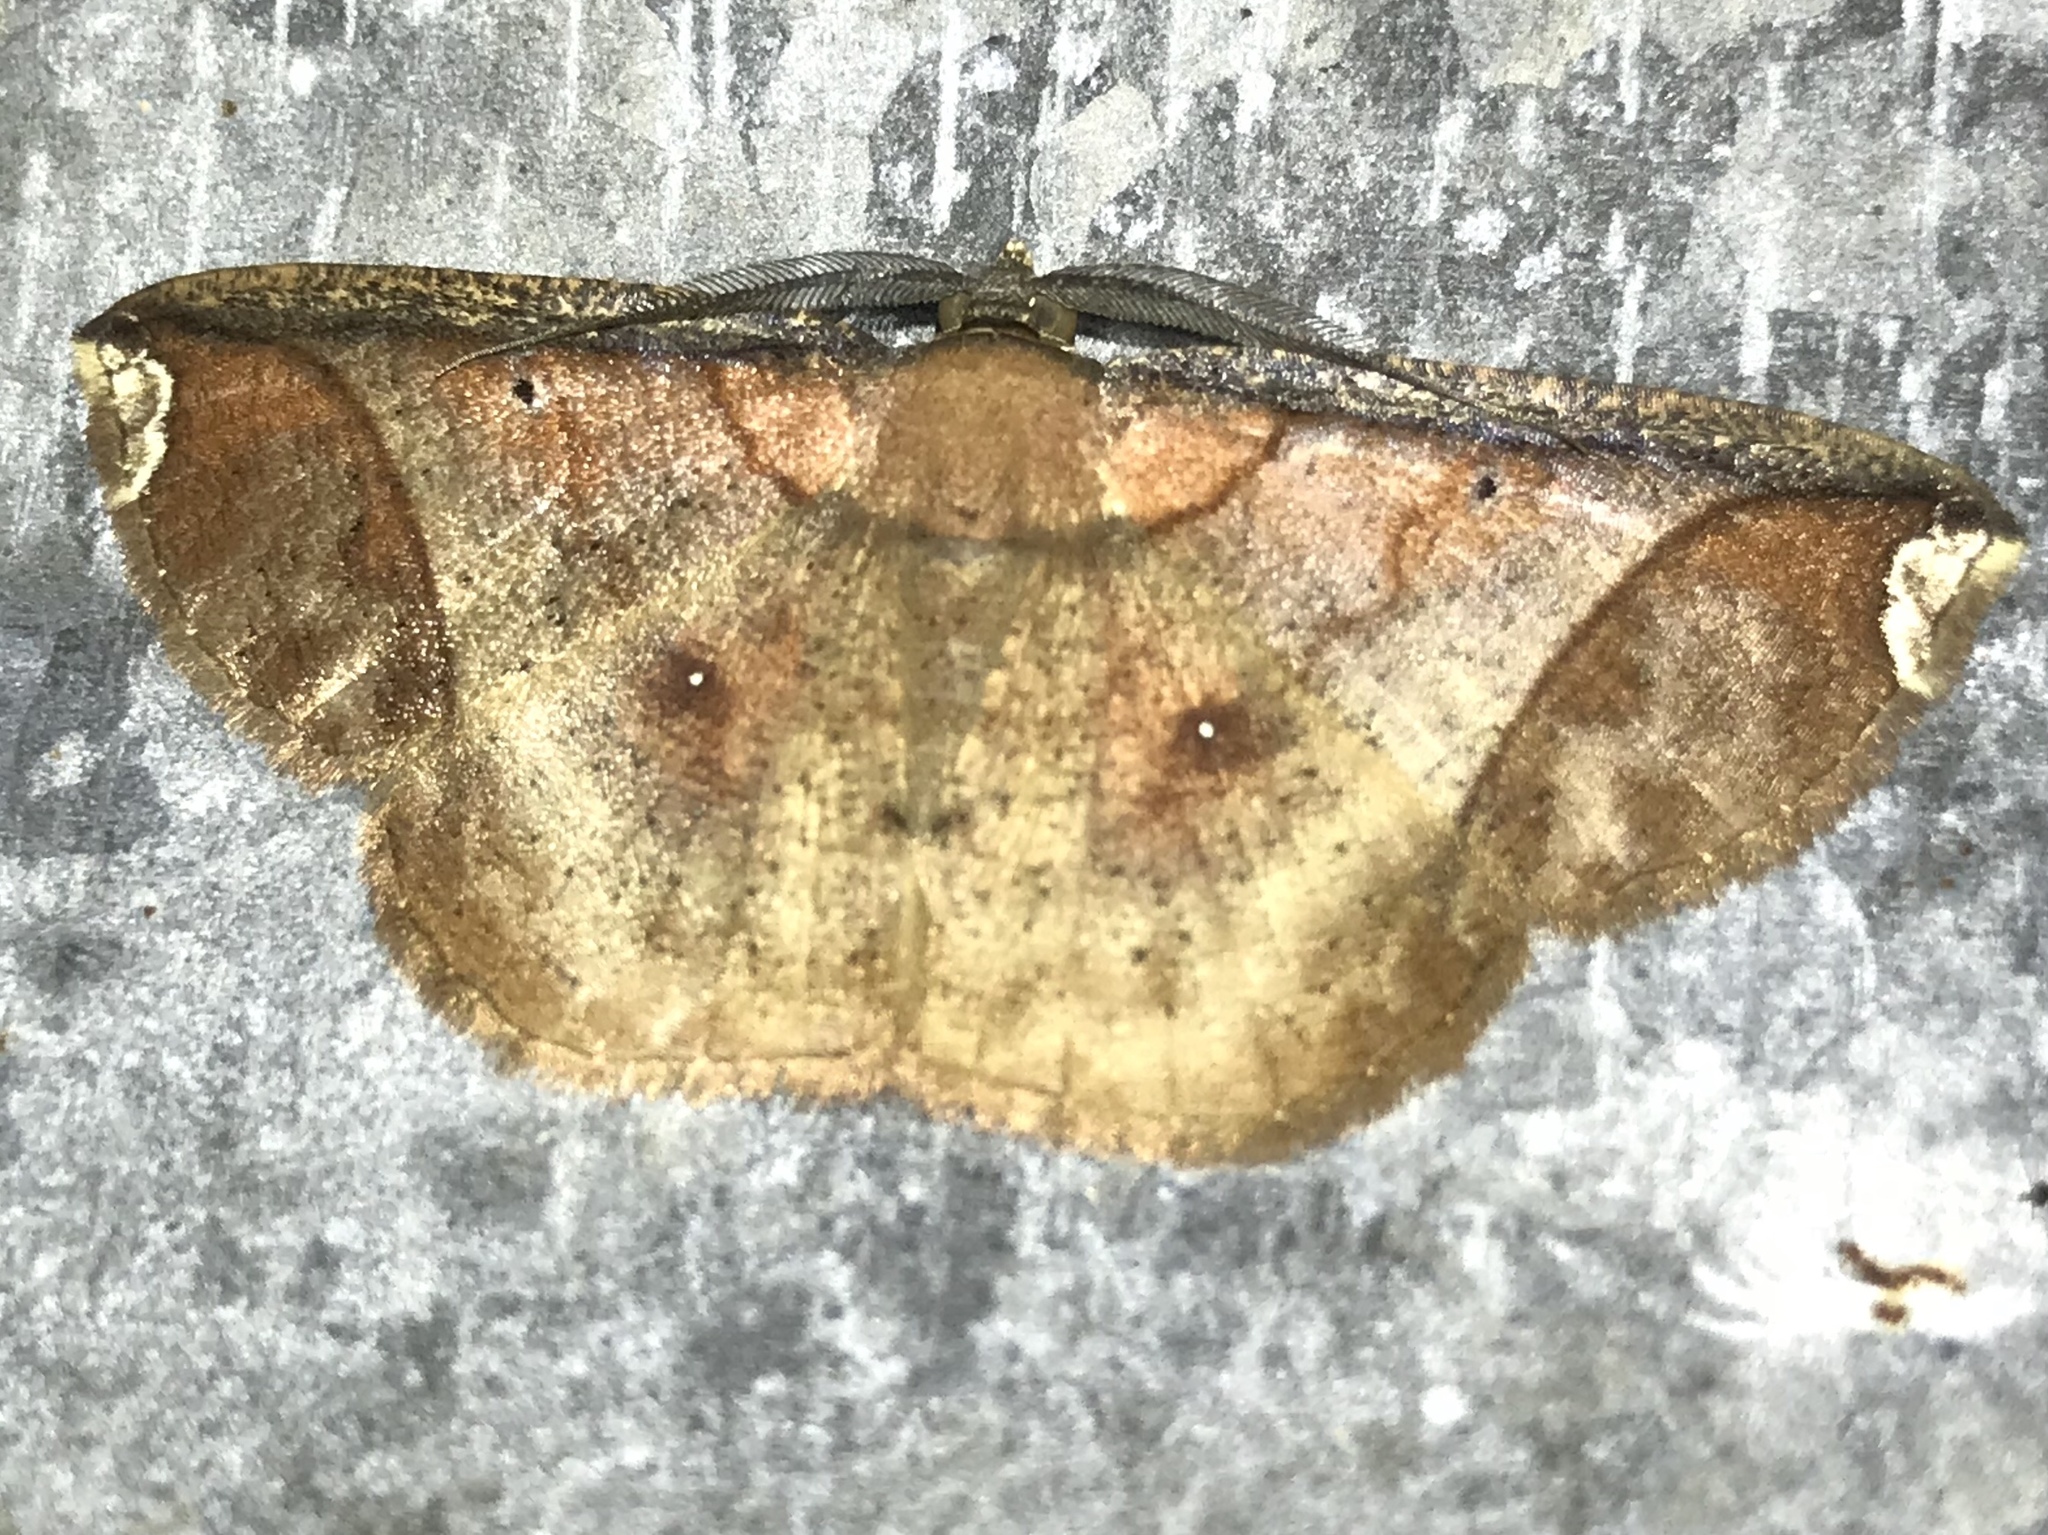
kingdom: Animalia
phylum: Arthropoda
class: Insecta
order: Lepidoptera
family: Geometridae
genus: Thysanopyga
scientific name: Thysanopyga carfinia
